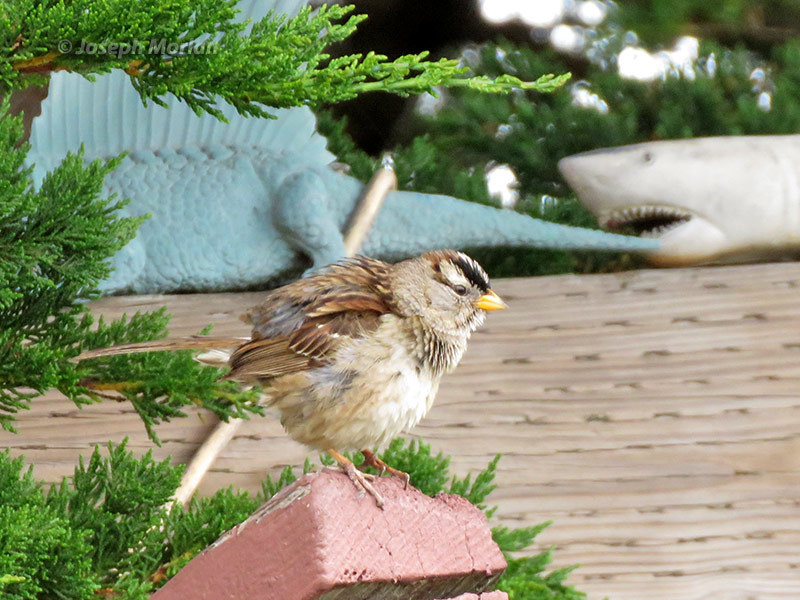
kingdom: Animalia
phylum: Chordata
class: Aves
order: Passeriformes
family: Passerellidae
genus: Zonotrichia
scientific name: Zonotrichia leucophrys
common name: White-crowned sparrow
